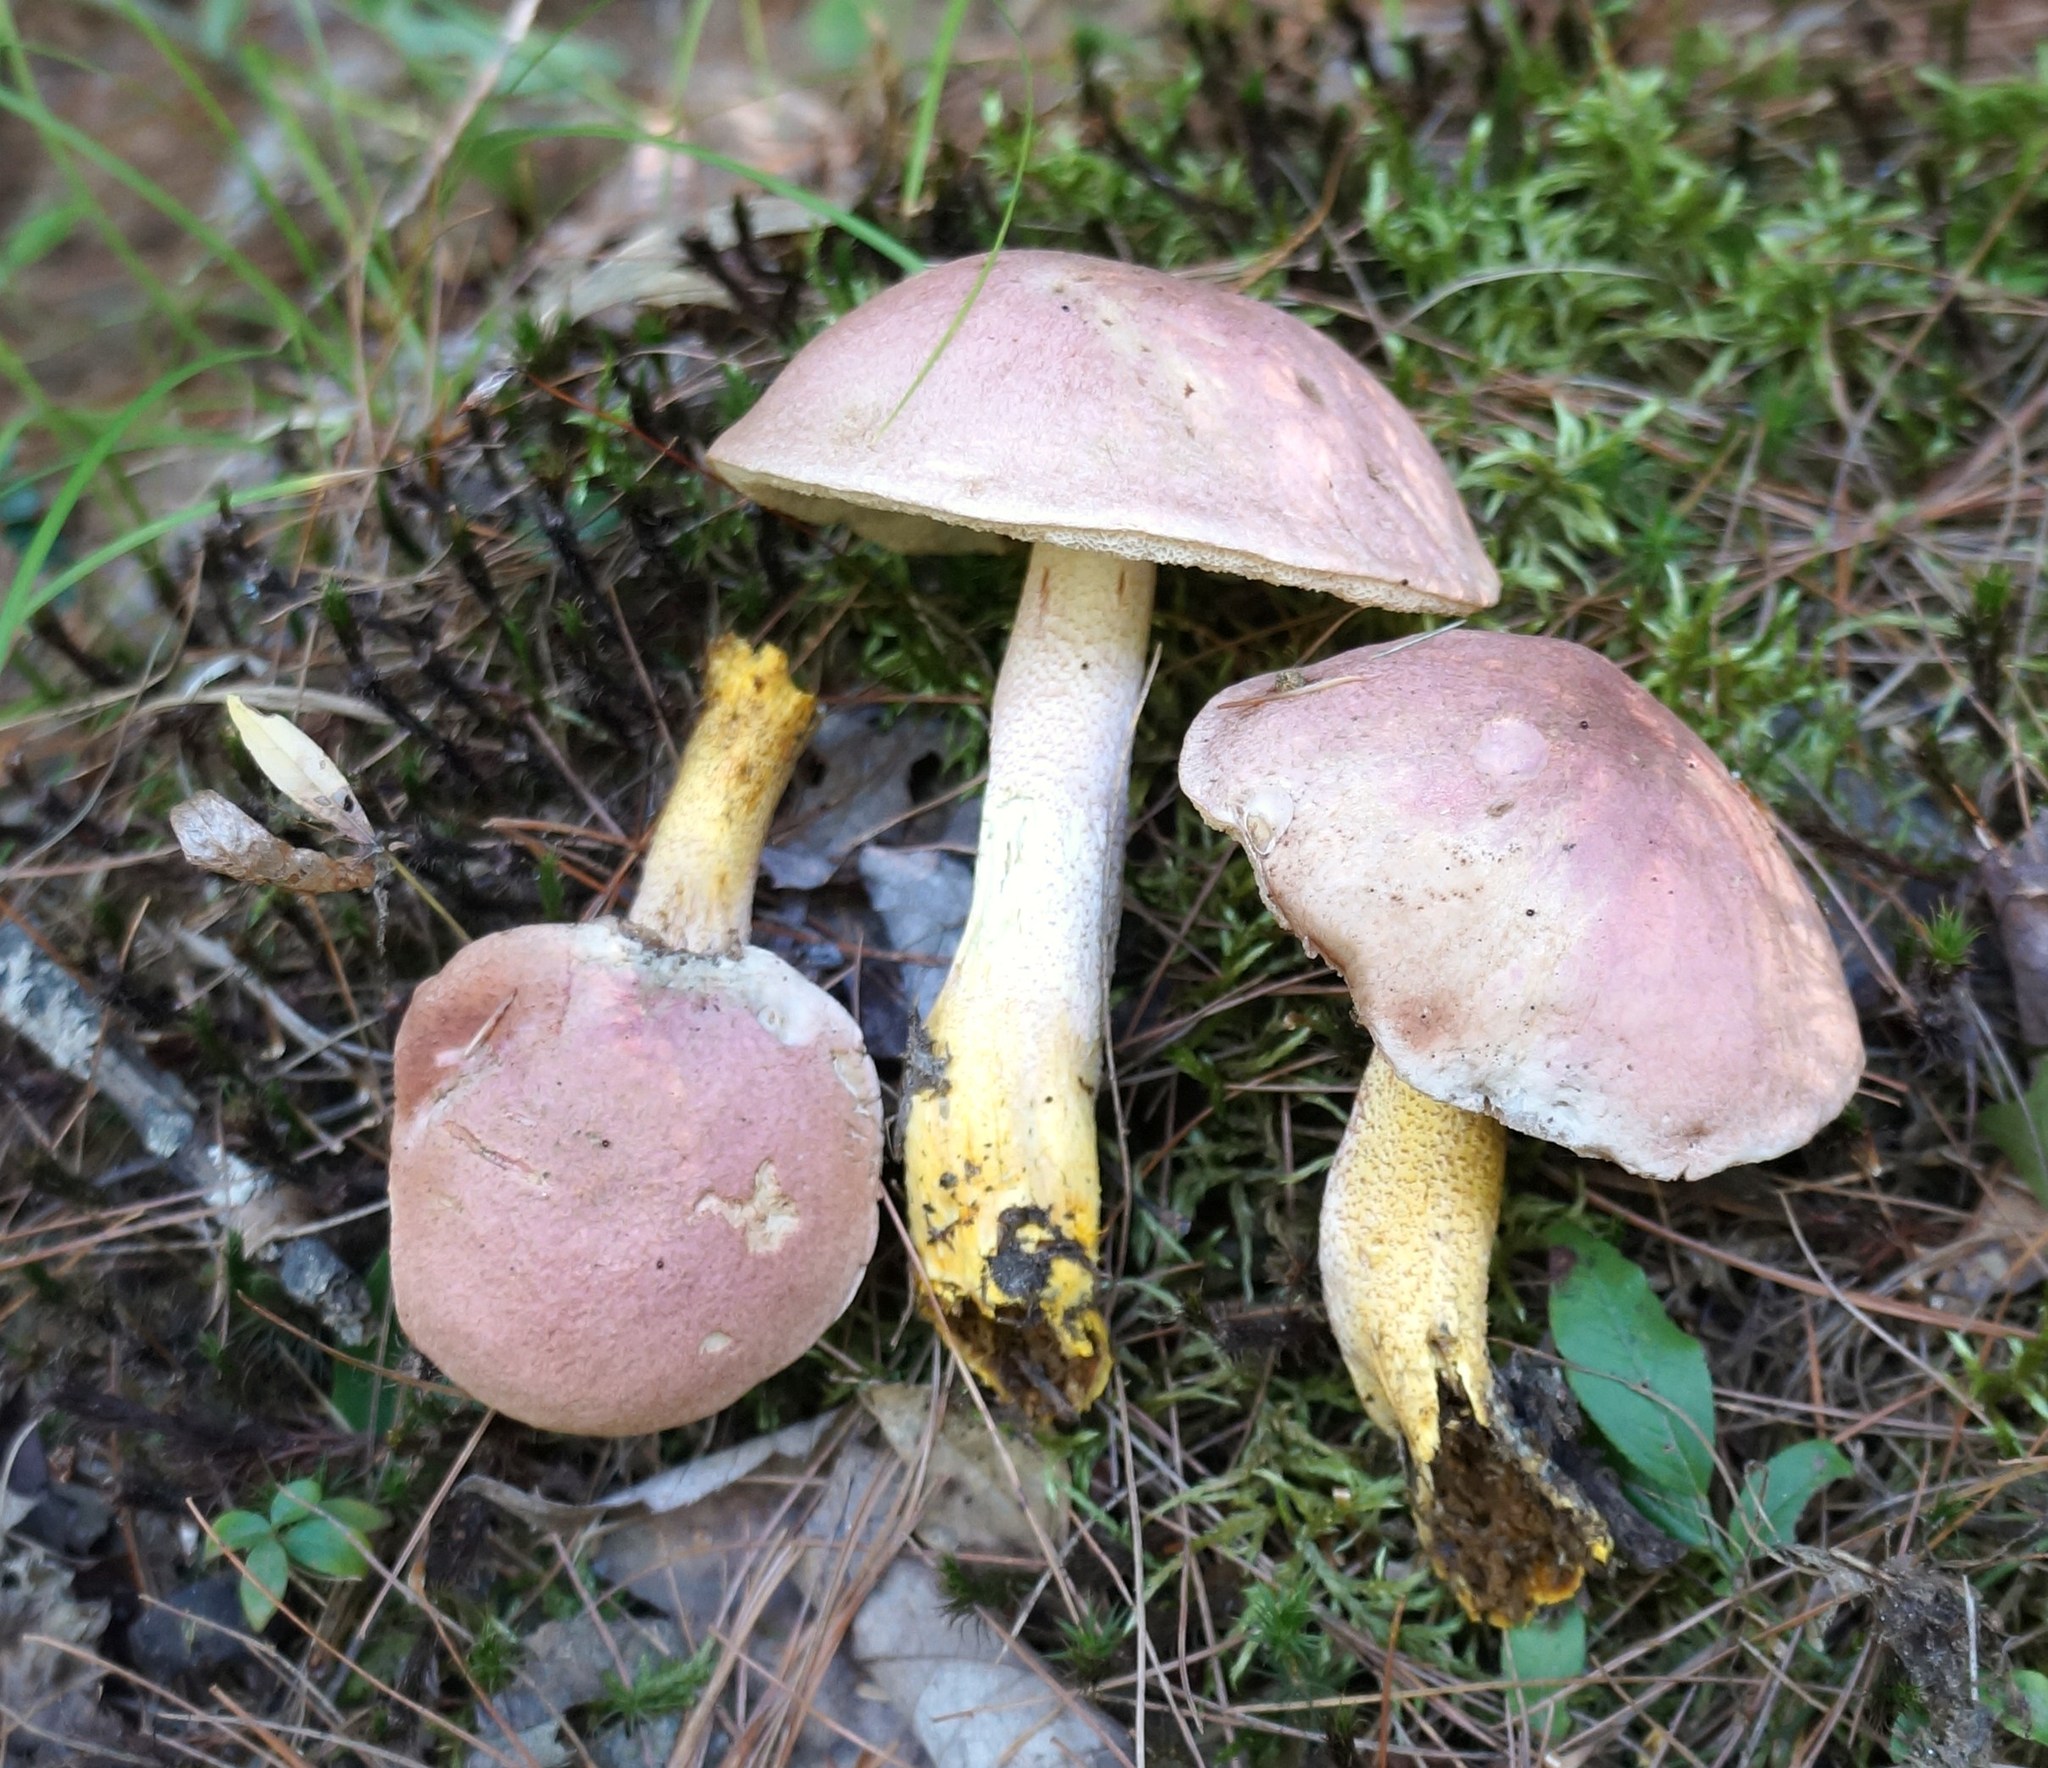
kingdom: Fungi
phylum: Basidiomycota
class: Agaricomycetes
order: Boletales
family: Boletaceae
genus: Harrya
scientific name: Harrya chromipes
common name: Chrome-footed bolete
